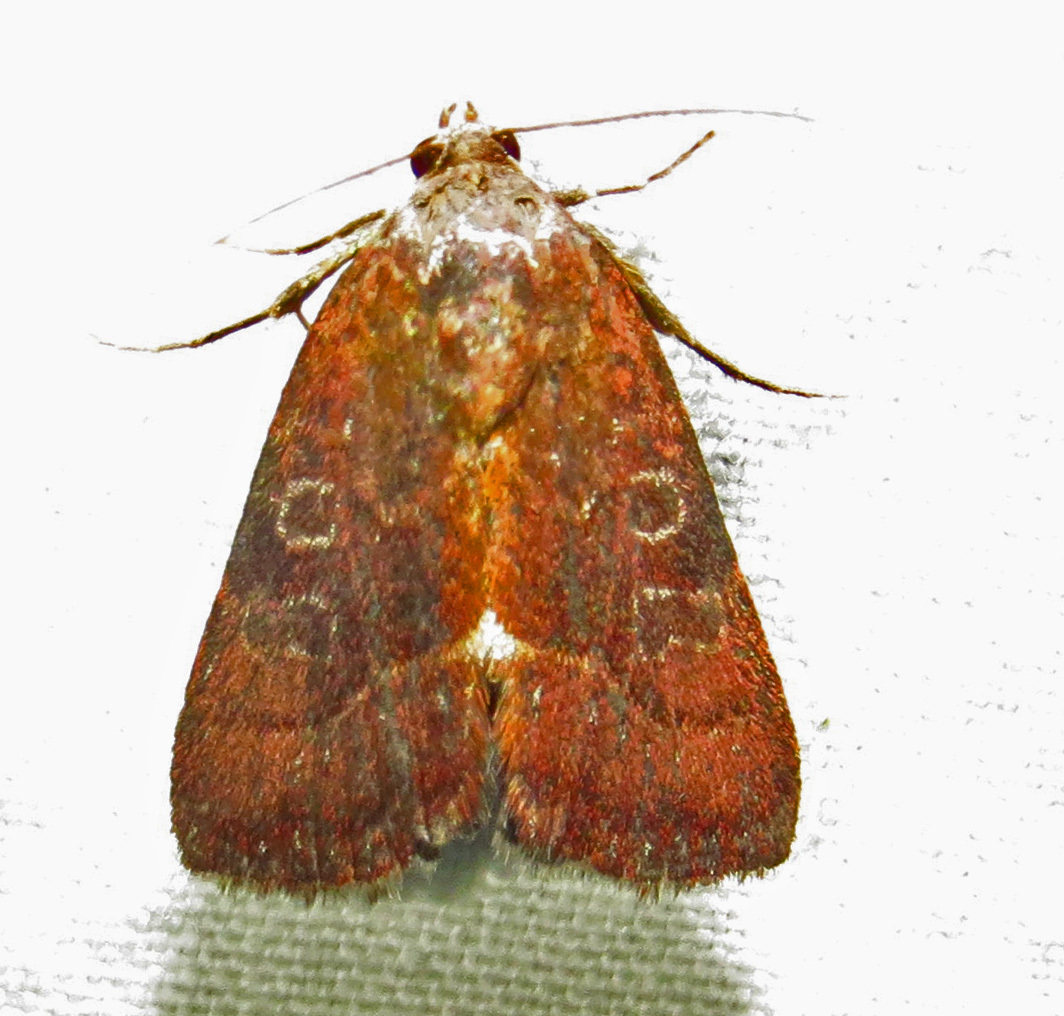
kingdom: Animalia
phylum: Arthropoda
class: Insecta
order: Lepidoptera
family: Noctuidae
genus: Galgula
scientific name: Galgula partita
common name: Wedgeling
